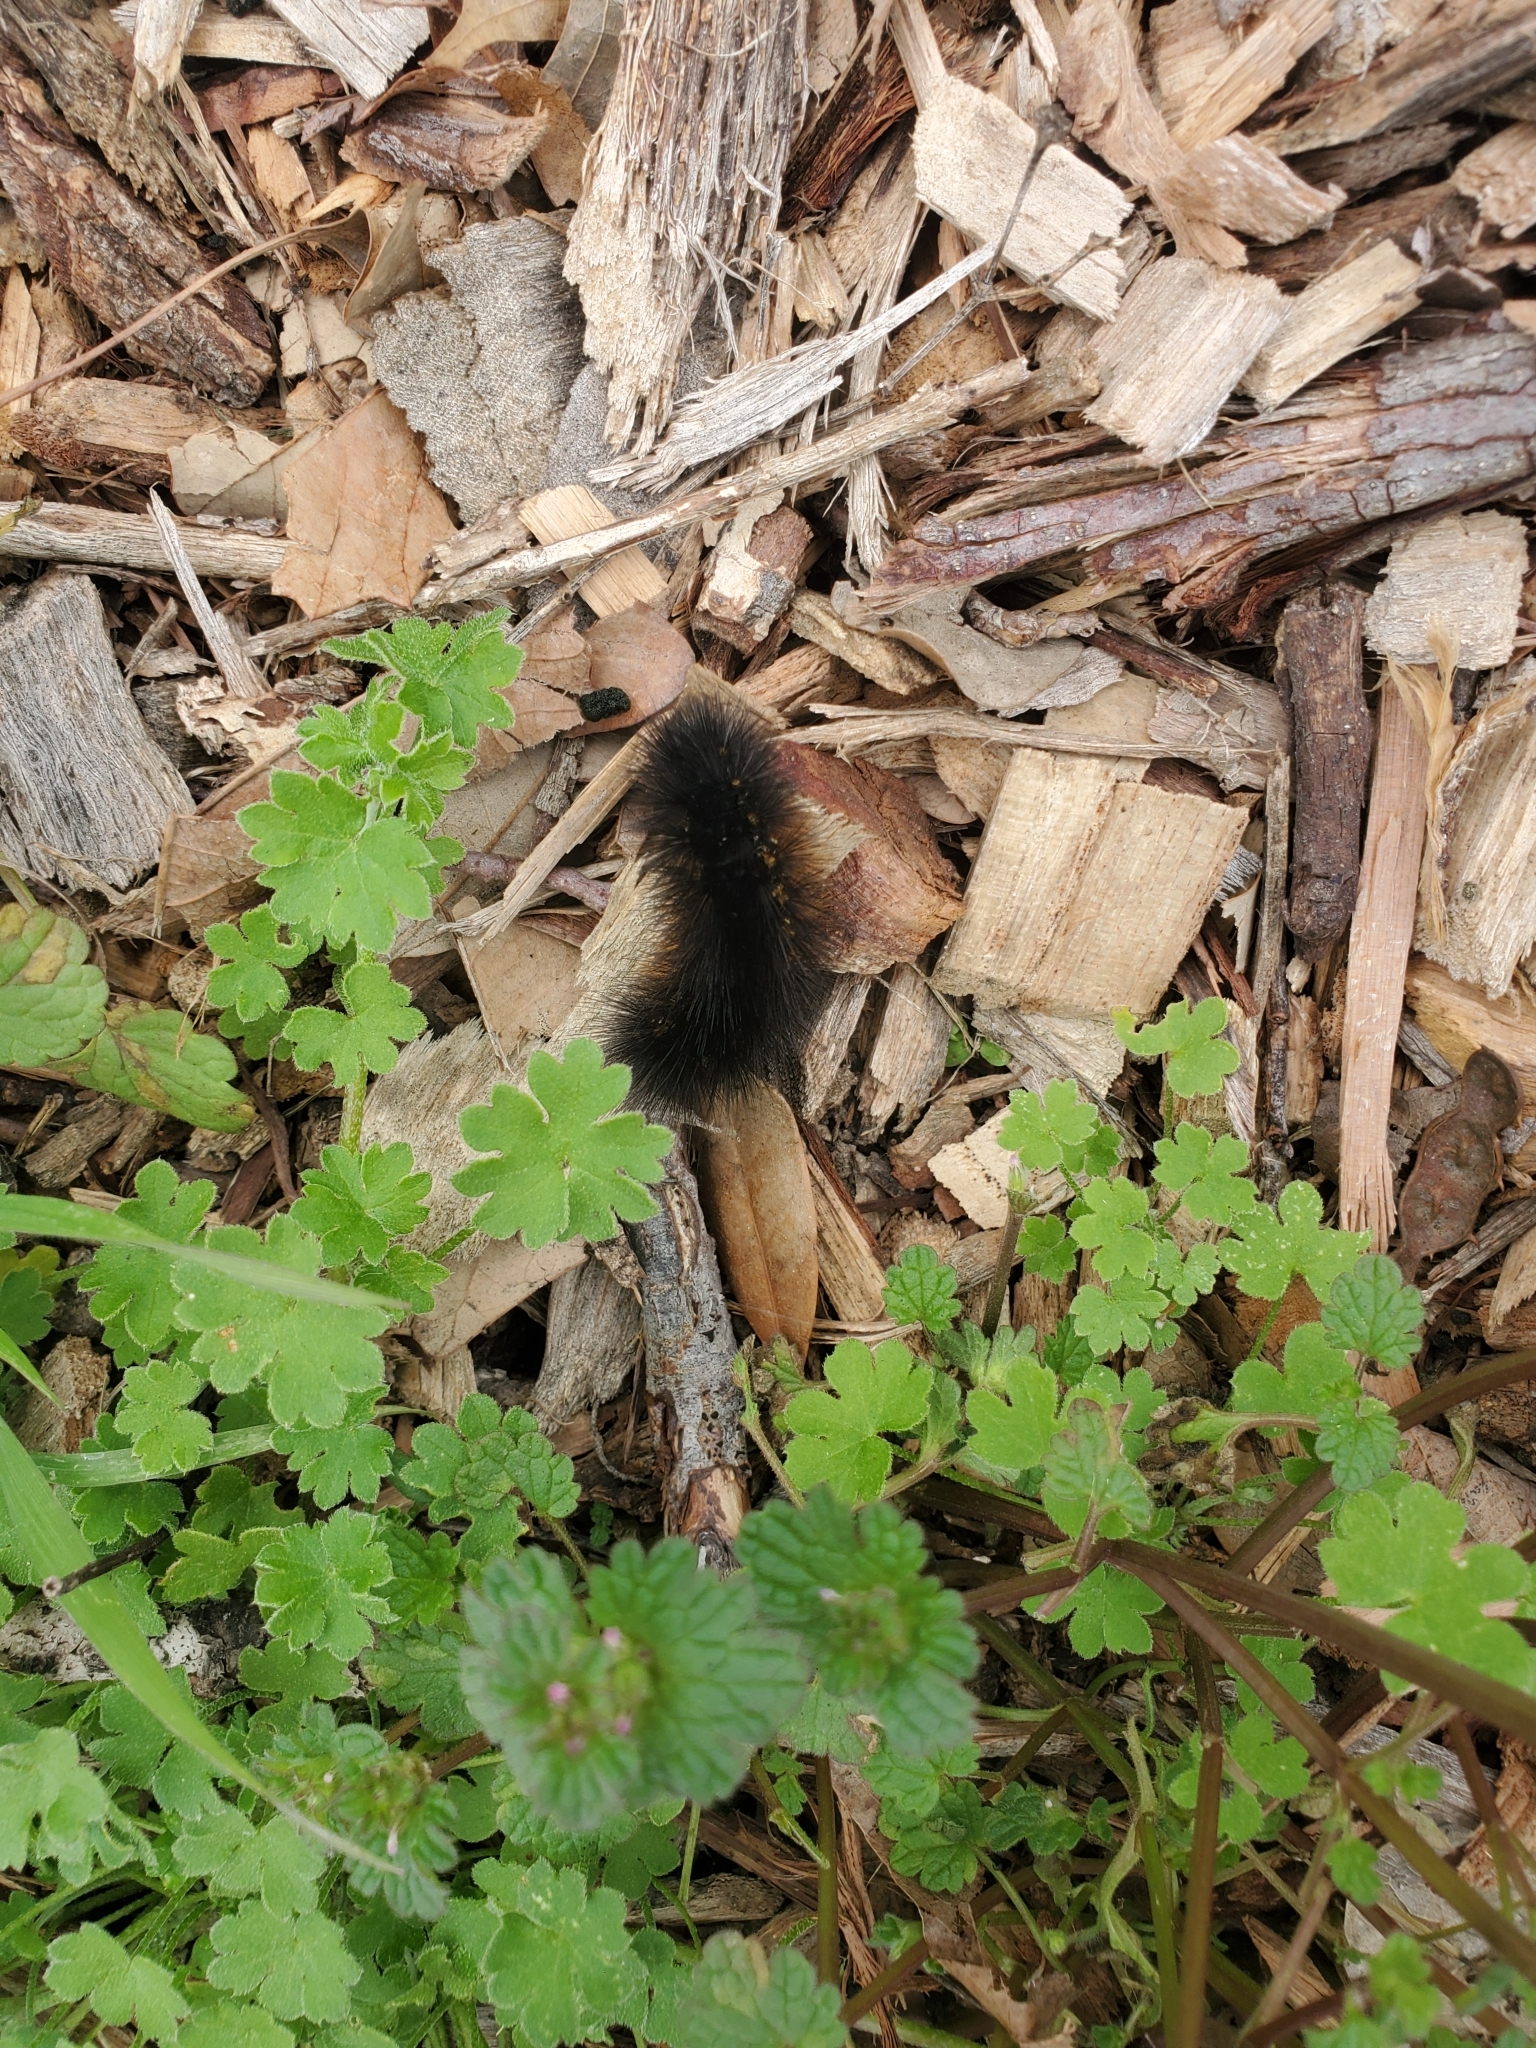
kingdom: Animalia
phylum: Arthropoda
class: Insecta
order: Lepidoptera
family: Erebidae
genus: Estigmene
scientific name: Estigmene acrea
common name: Salt marsh moth
